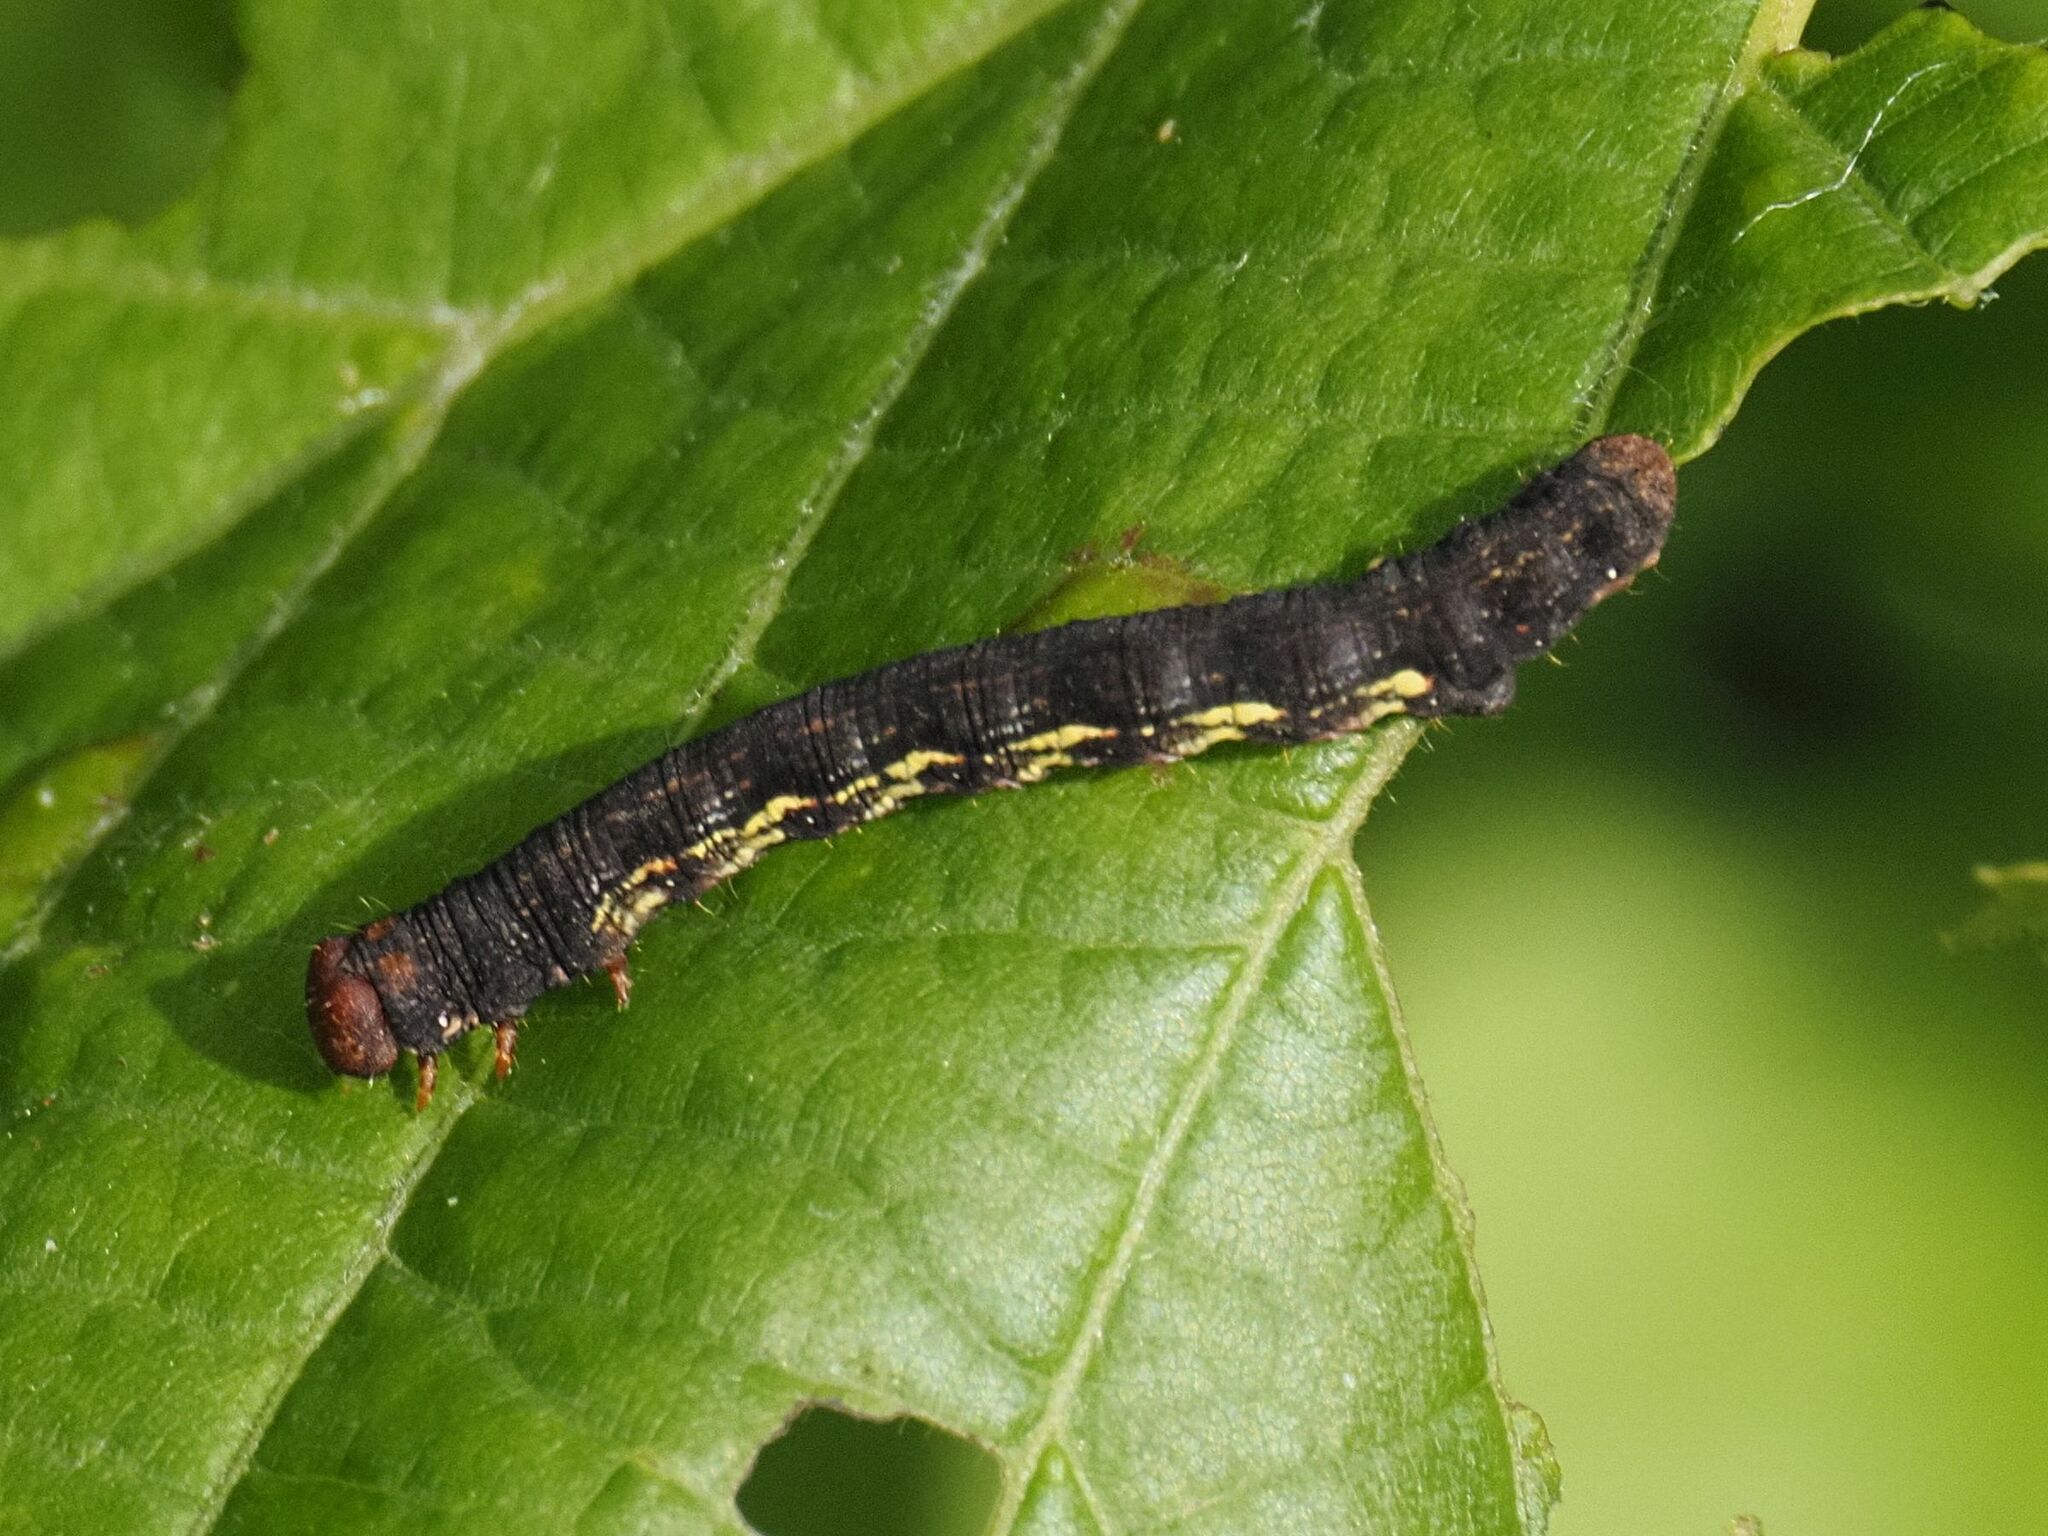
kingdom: Animalia
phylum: Arthropoda
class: Insecta
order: Lepidoptera
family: Geometridae
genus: Erannis
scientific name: Erannis defoliaria
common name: Mottled umber
